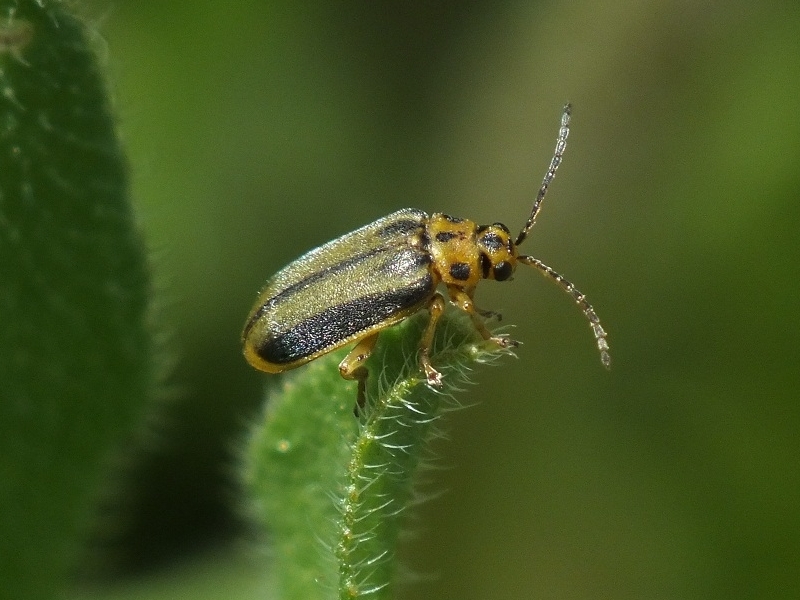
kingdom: Animalia
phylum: Arthropoda
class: Insecta
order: Coleoptera
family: Chrysomelidae
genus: Xanthogaleruca
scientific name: Xanthogaleruca luteola
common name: Elm leaf beetle
